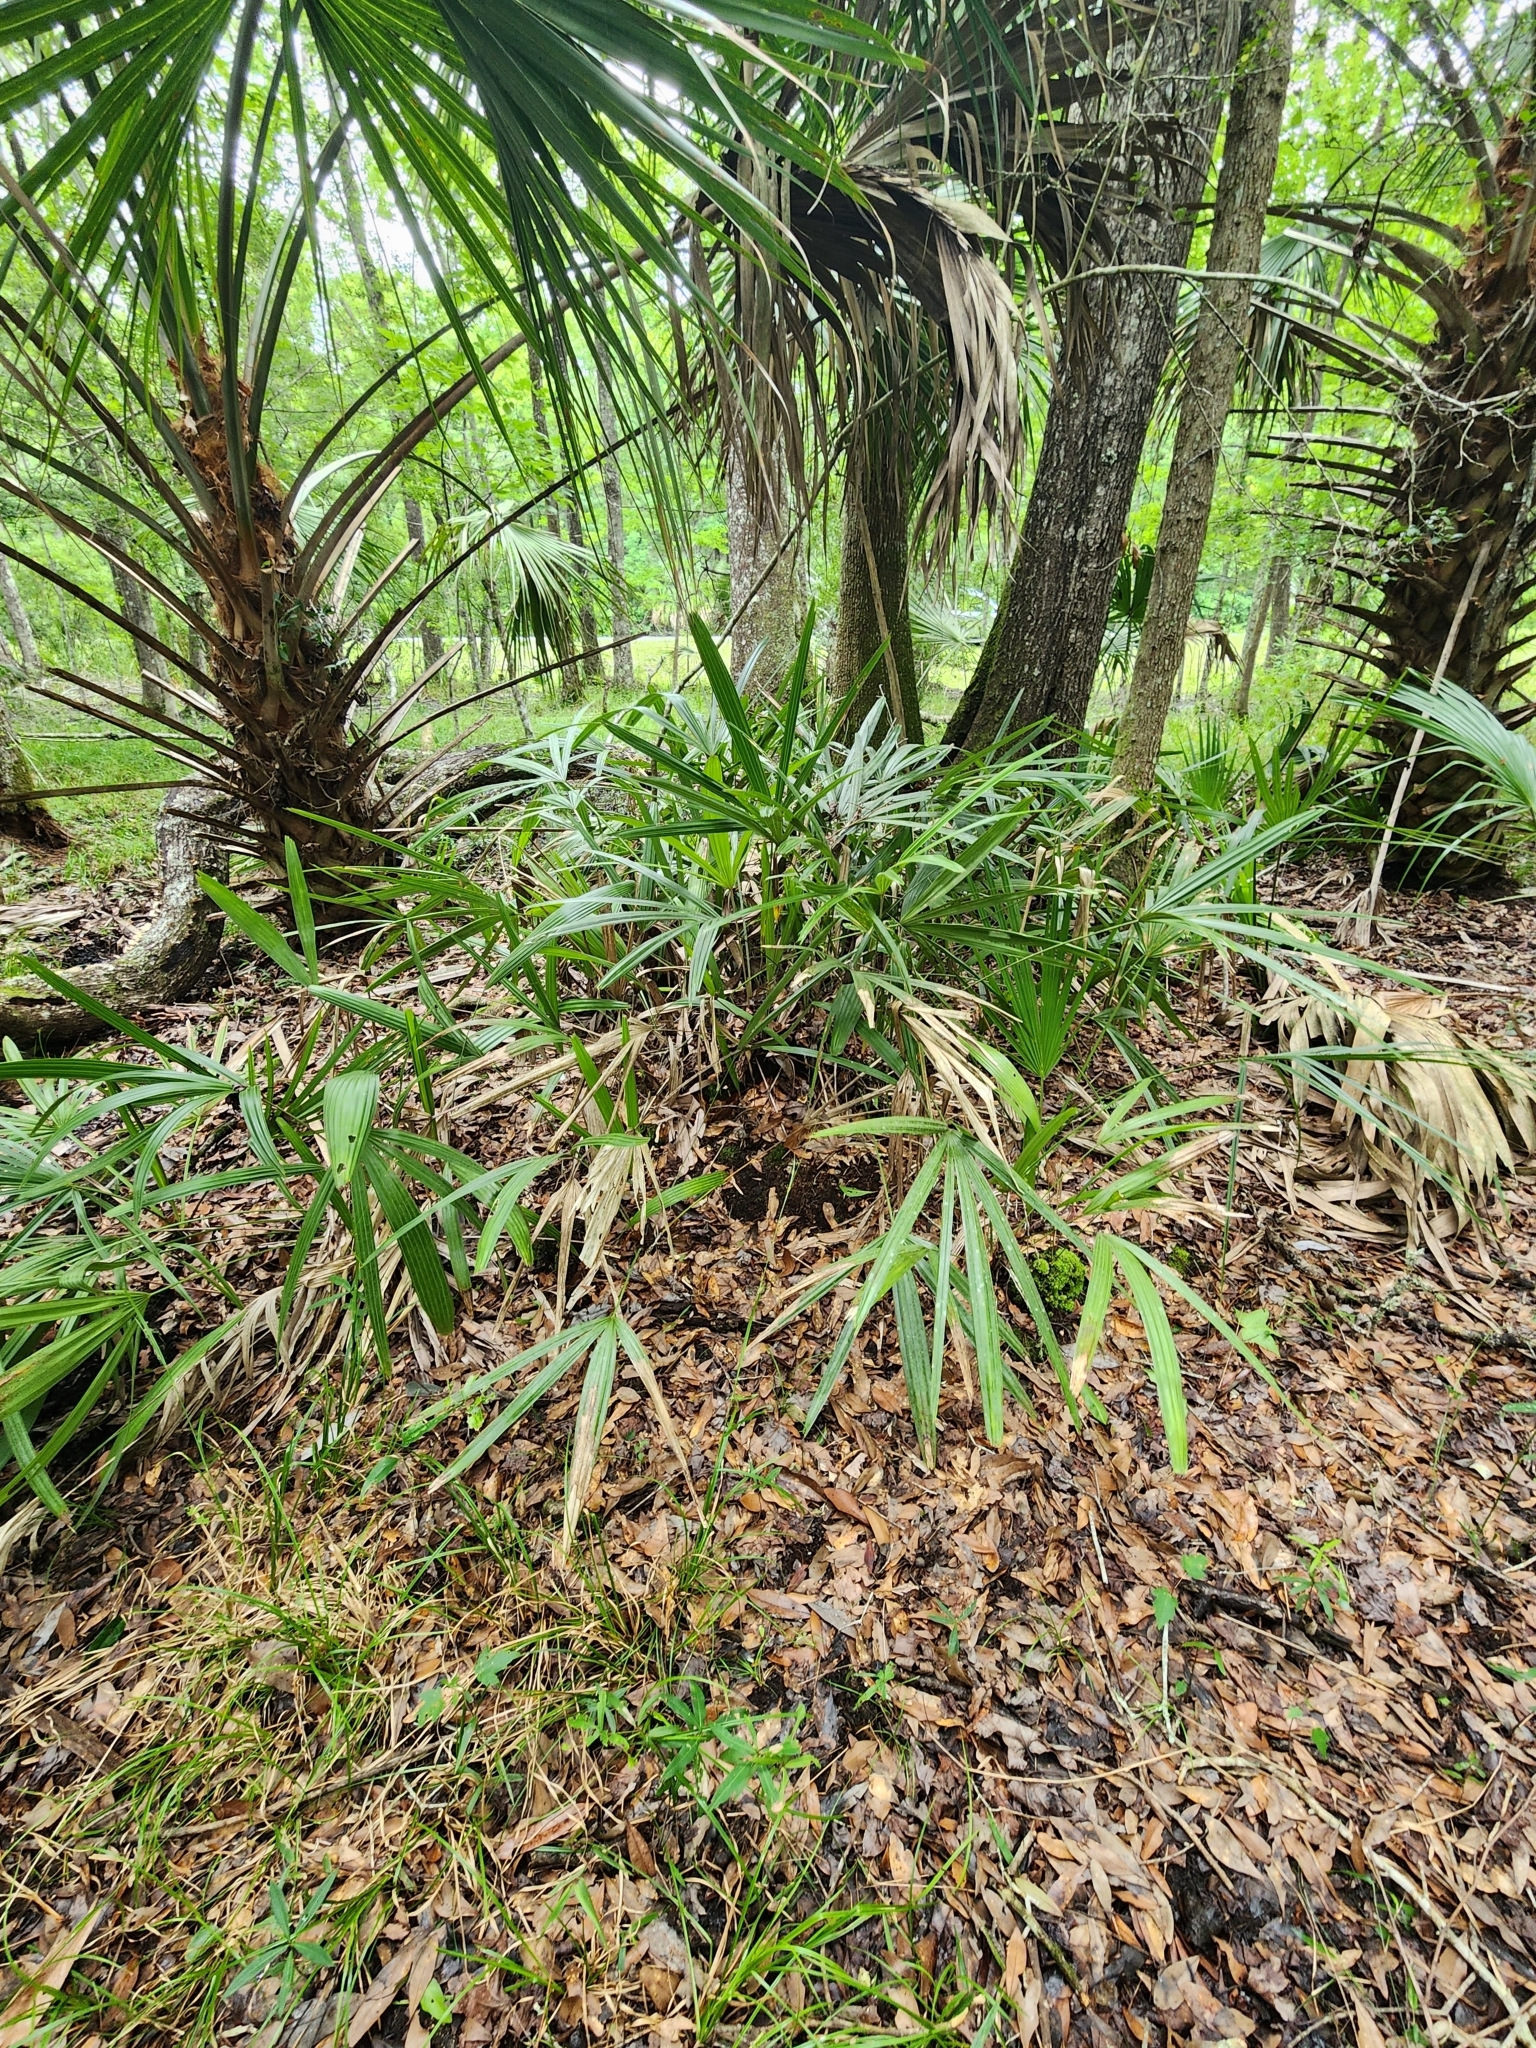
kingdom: Plantae
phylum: Tracheophyta
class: Liliopsida
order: Arecales
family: Arecaceae
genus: Rhapidophyllum
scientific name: Rhapidophyllum hystrix
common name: Porcupine palm
